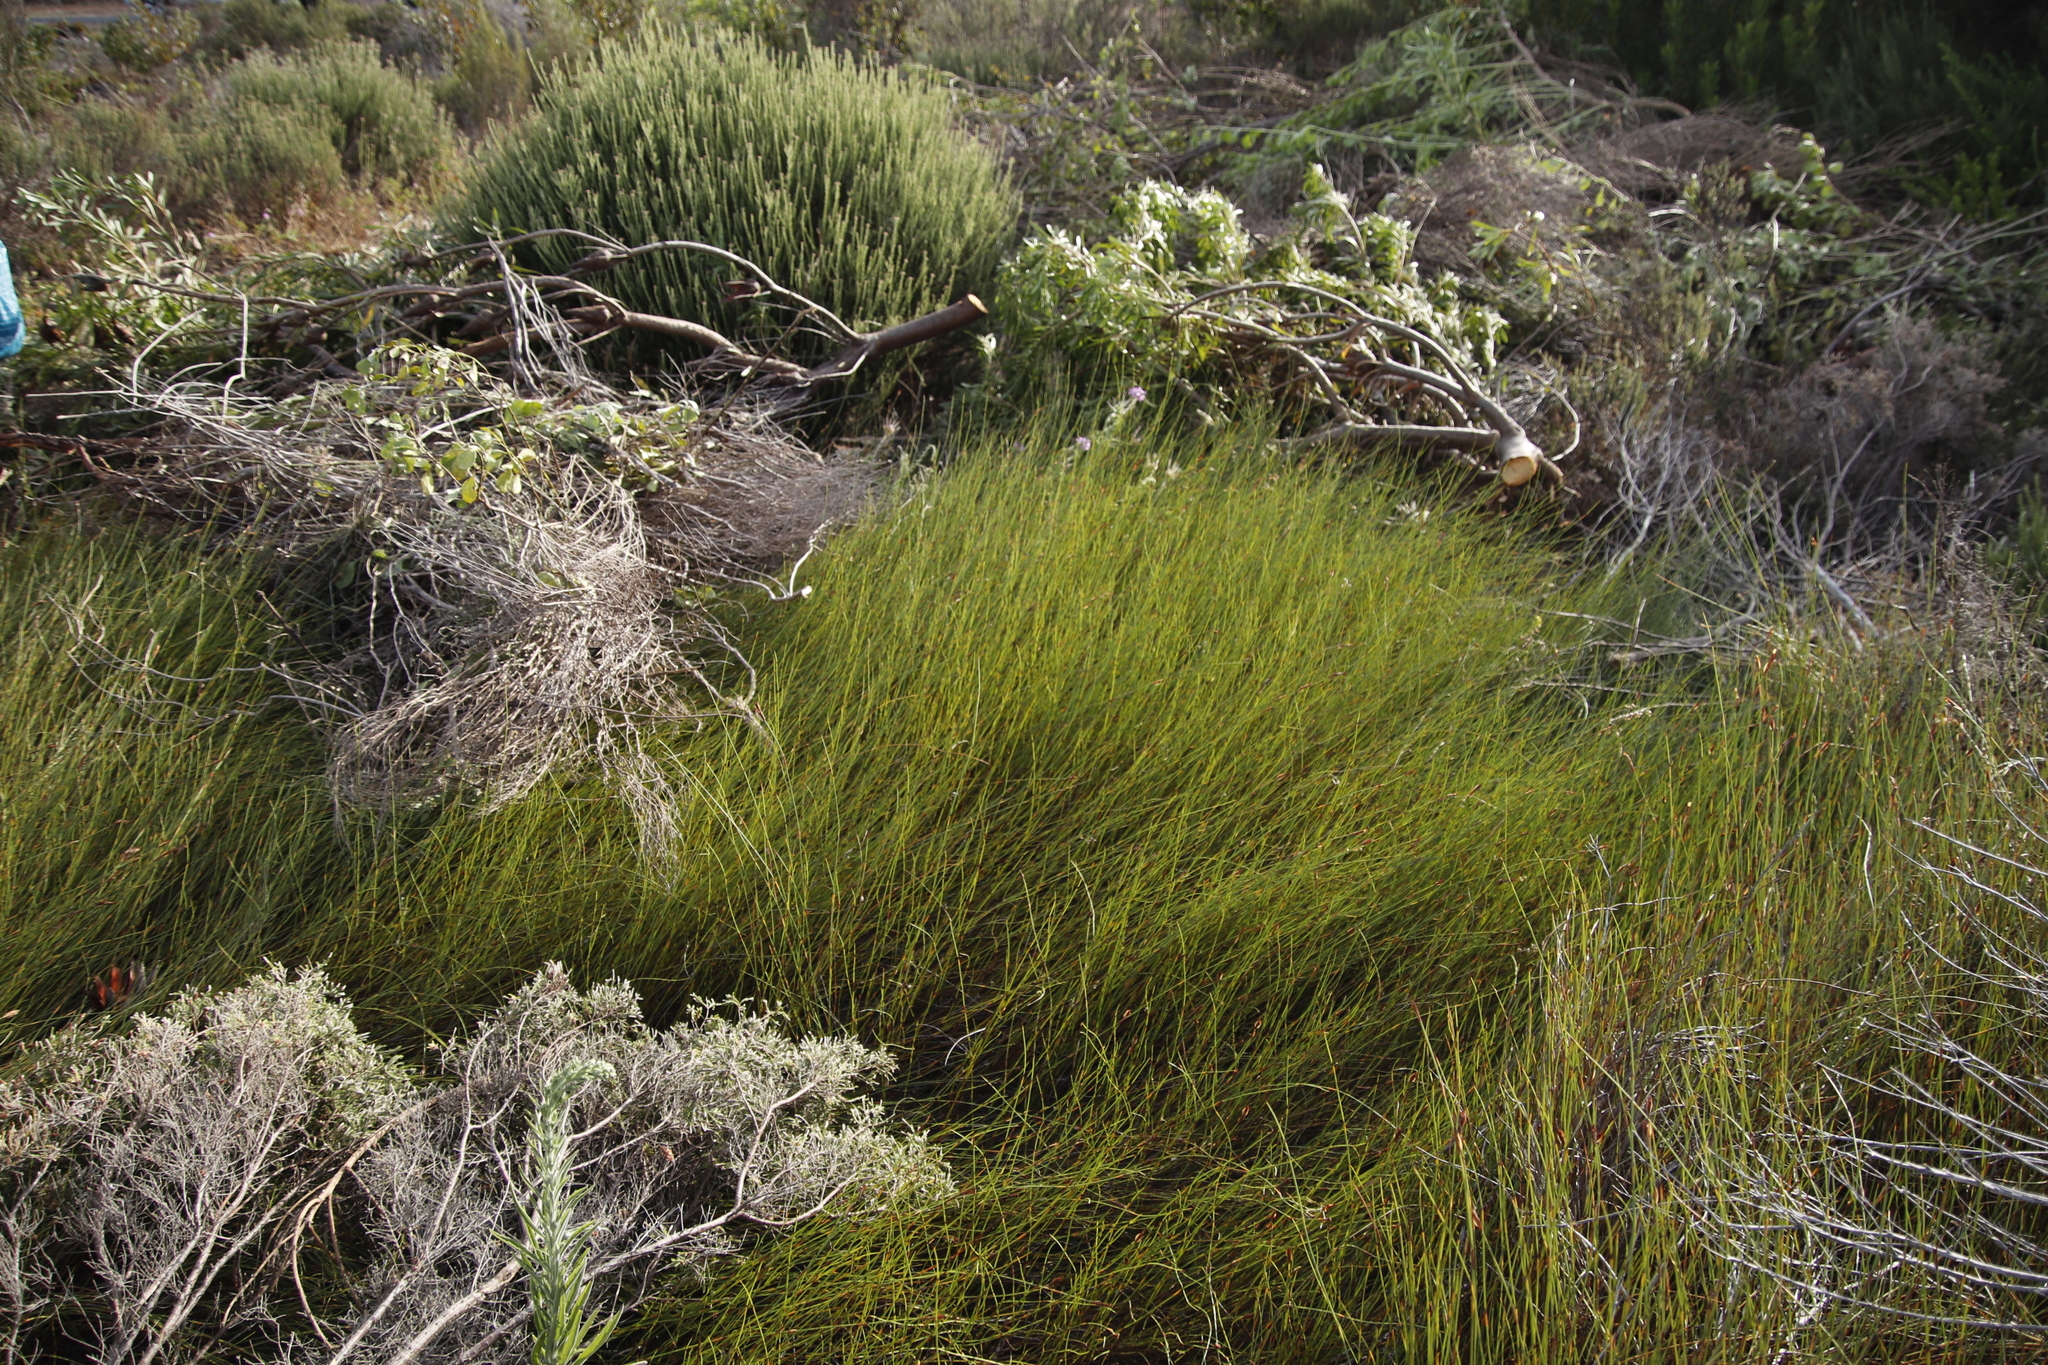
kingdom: Plantae
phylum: Tracheophyta
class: Liliopsida
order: Poales
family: Restionaceae
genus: Willdenowia
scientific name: Willdenowia sulcata
